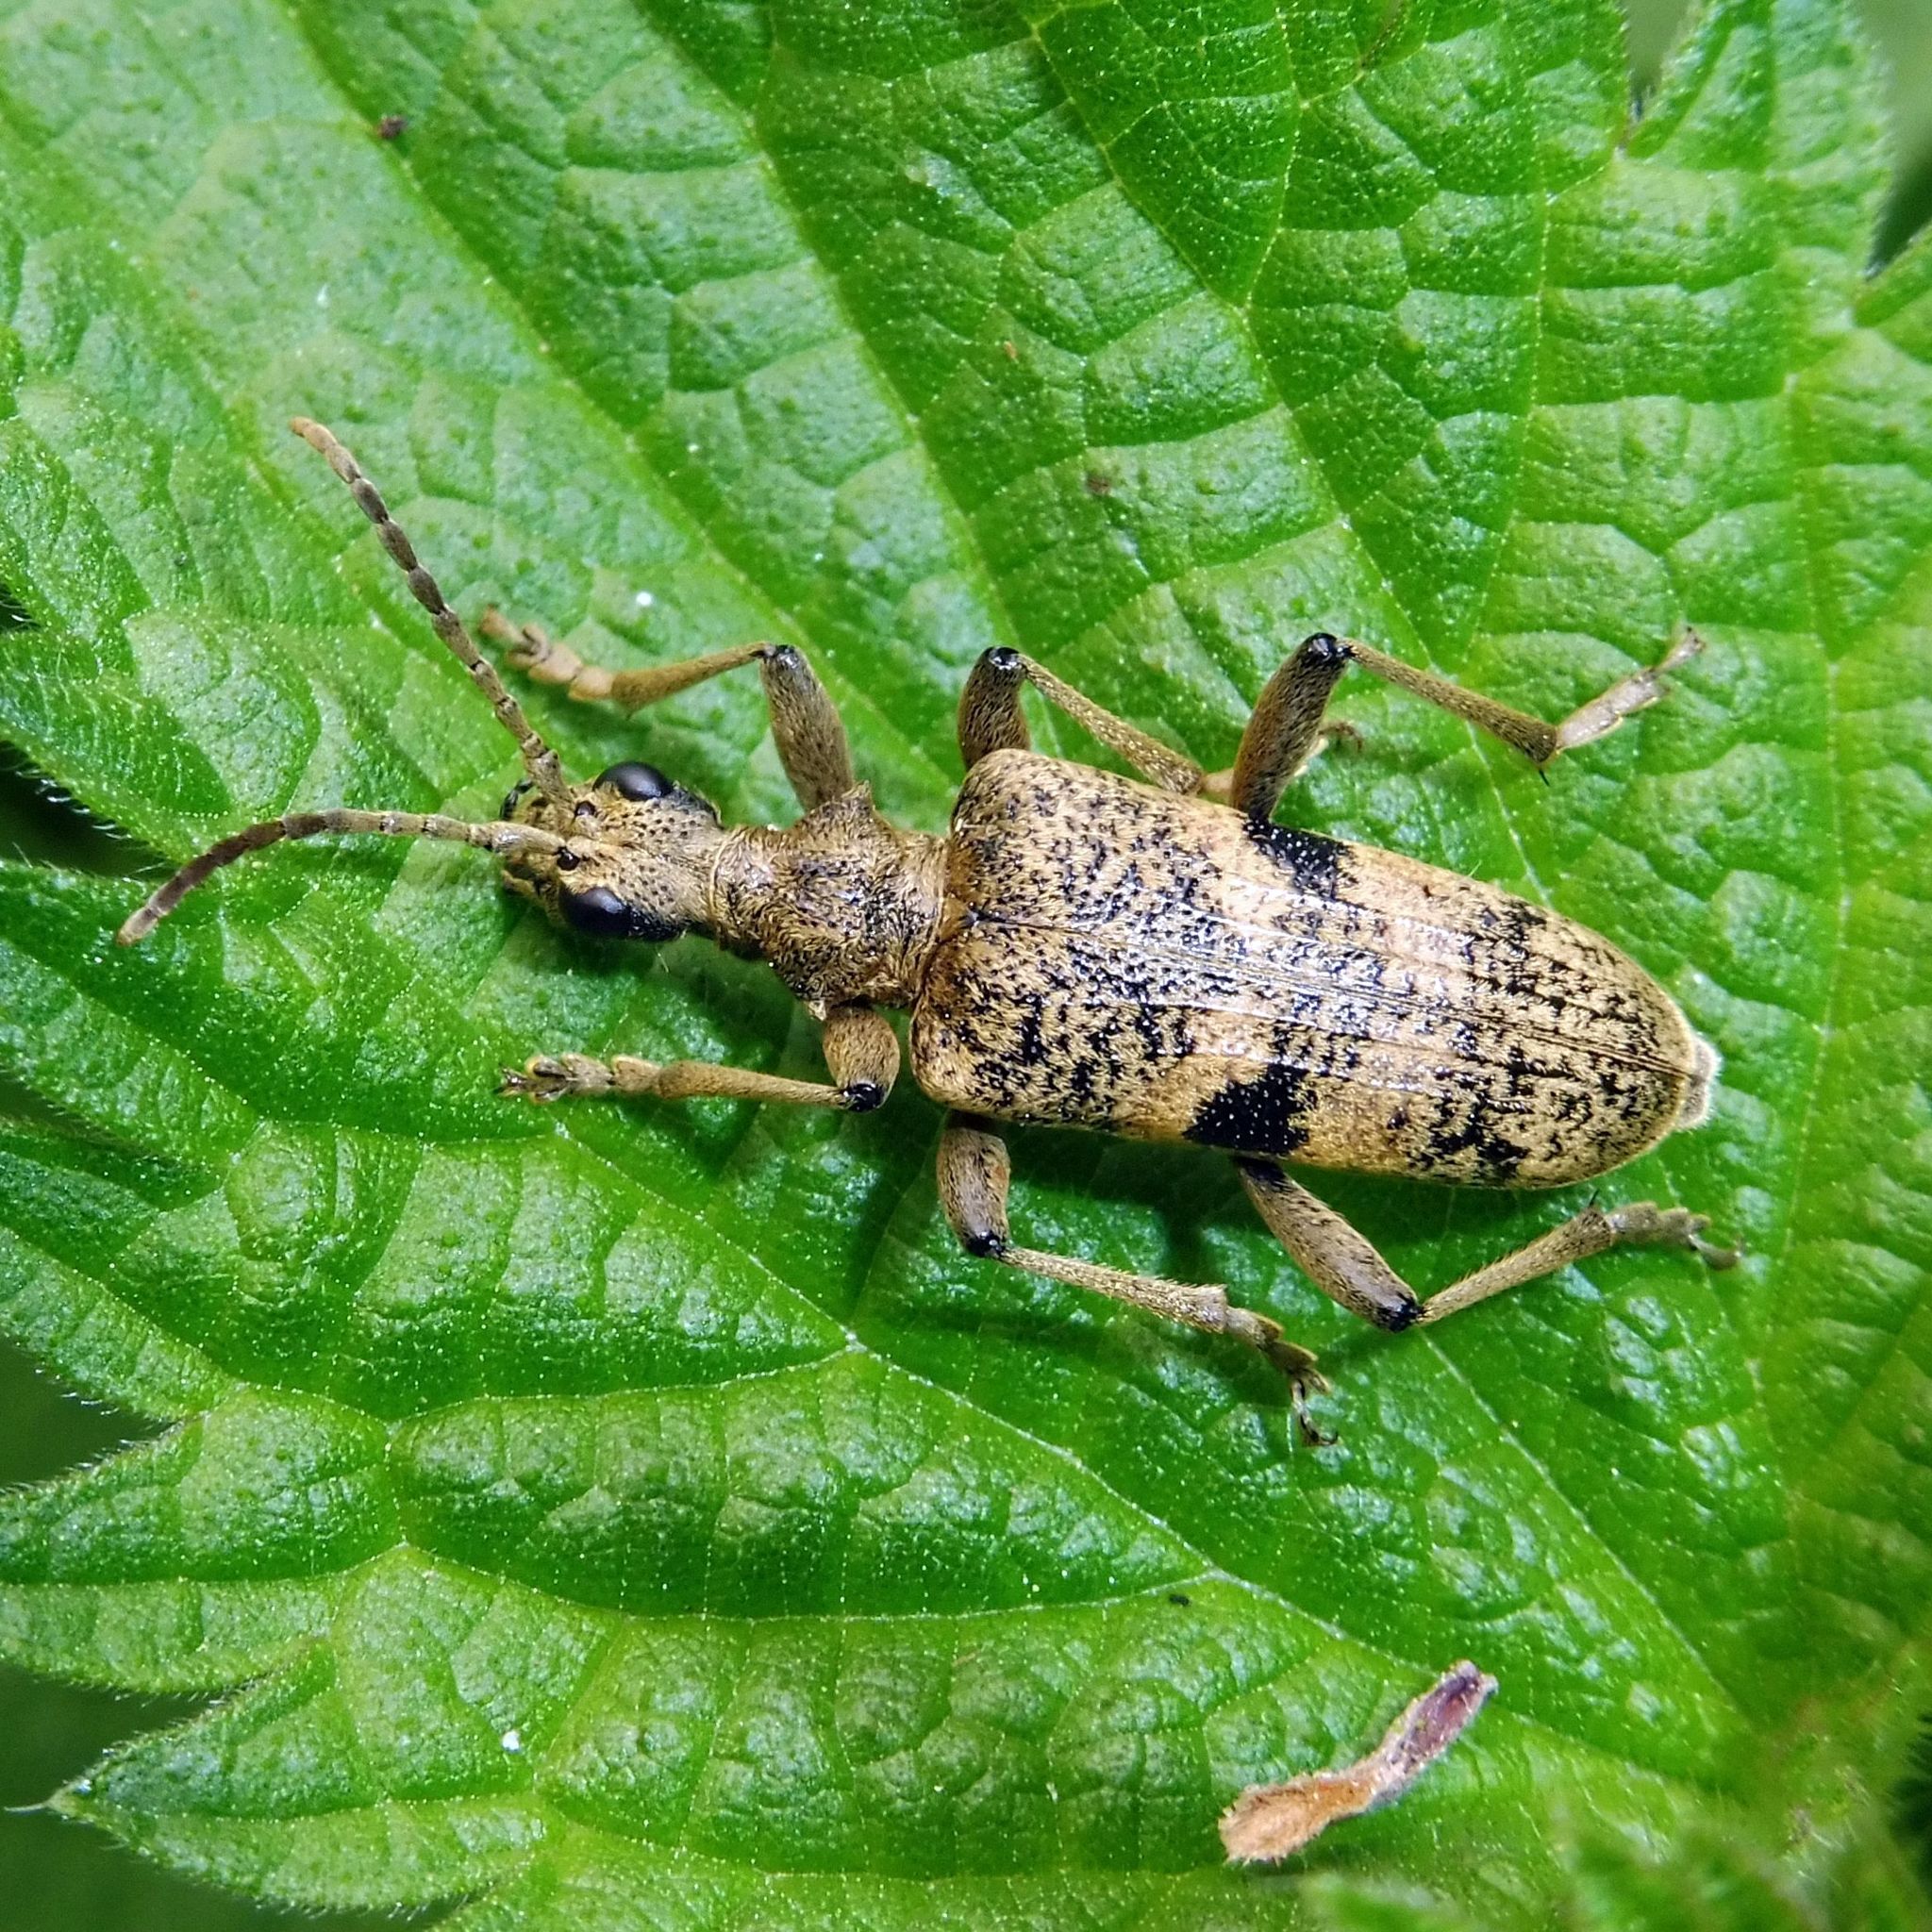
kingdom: Animalia
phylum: Arthropoda
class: Insecta
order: Coleoptera
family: Cerambycidae
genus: Rhagium
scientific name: Rhagium mordax
